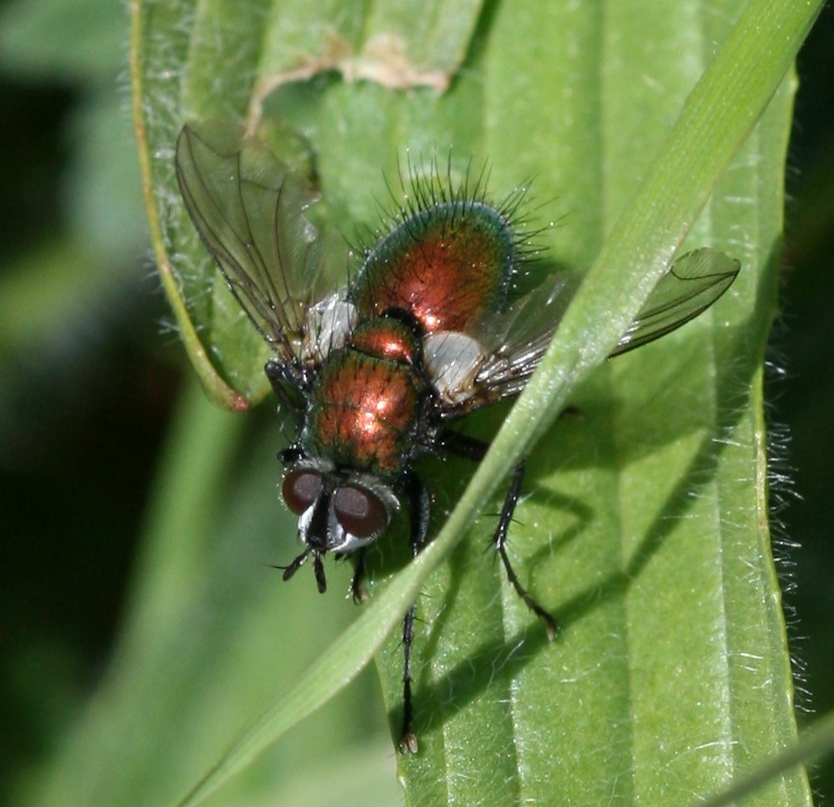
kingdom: Animalia
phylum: Arthropoda
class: Insecta
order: Diptera
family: Tachinidae
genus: Gymnocheta
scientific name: Gymnocheta viridis
